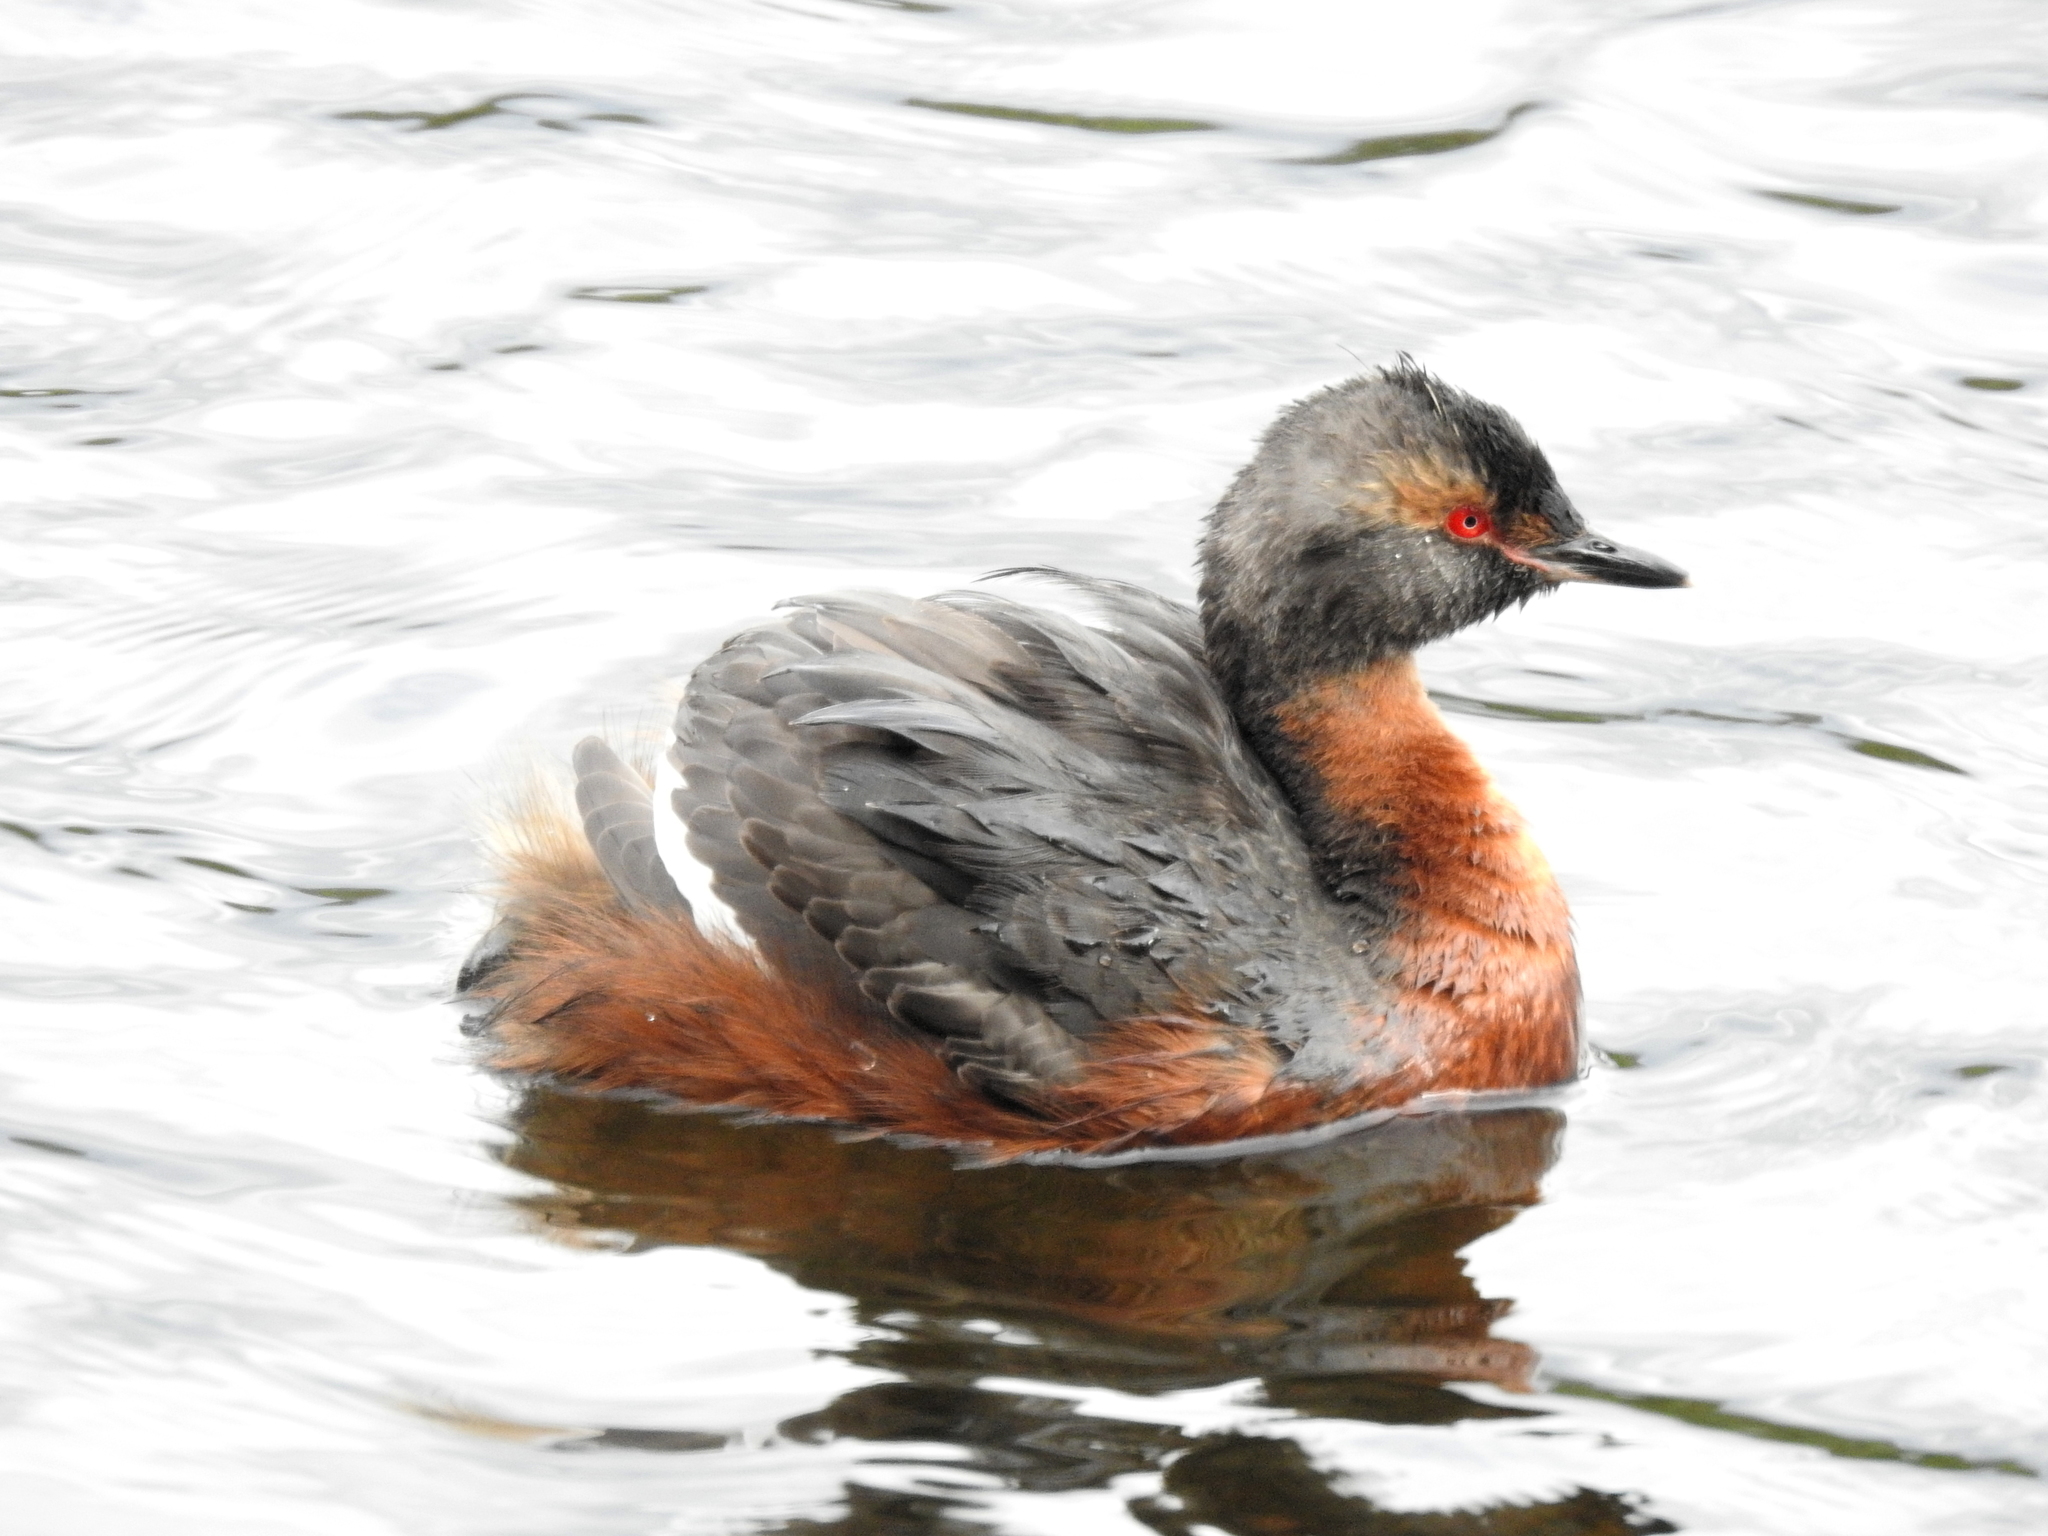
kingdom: Animalia
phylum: Chordata
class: Aves
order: Podicipediformes
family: Podicipedidae
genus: Podiceps
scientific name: Podiceps auritus
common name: Horned grebe
